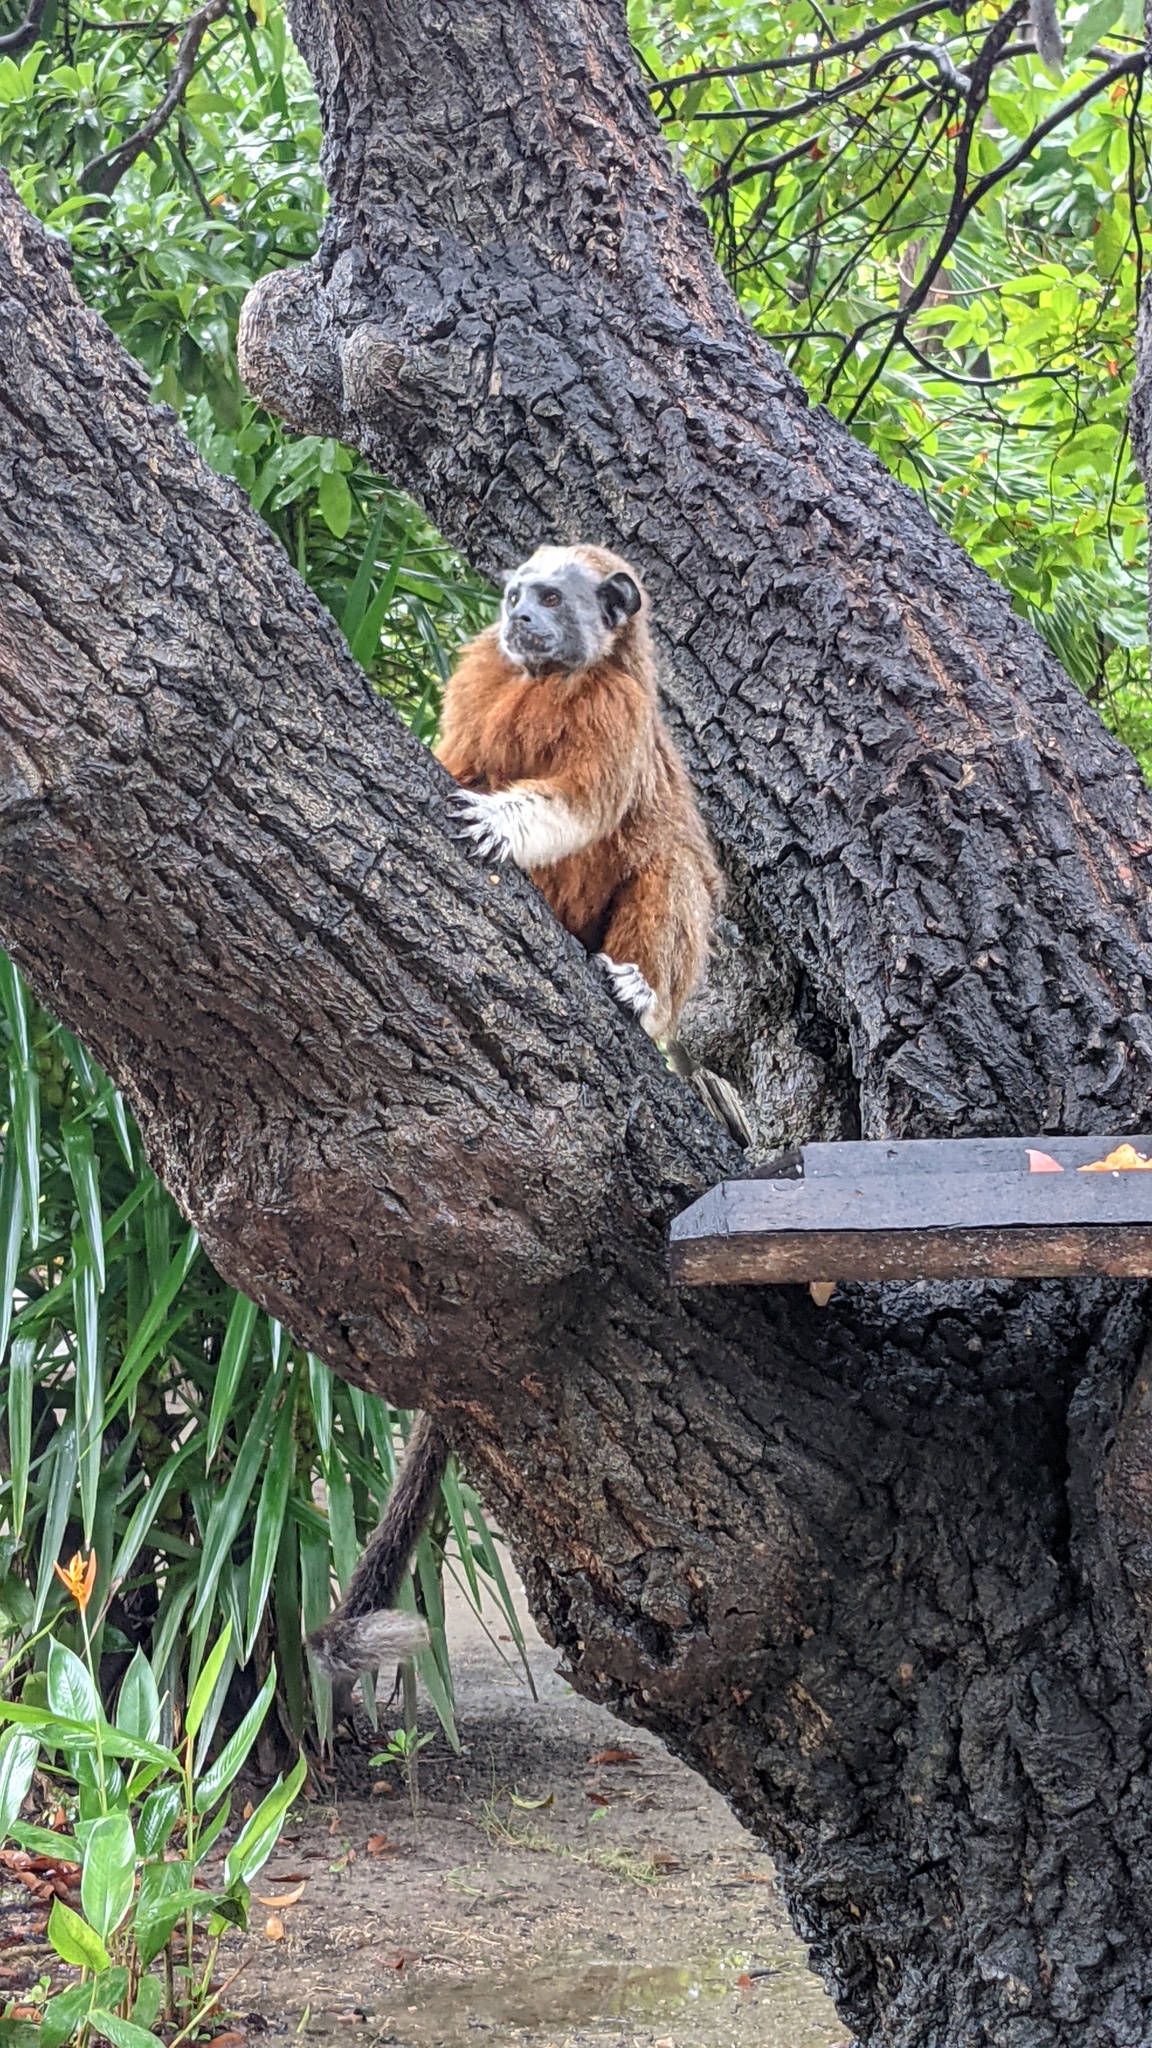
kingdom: Animalia
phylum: Chordata
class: Mammalia
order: Primates
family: Callitrichidae
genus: Saguinus
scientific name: Saguinus leucopus
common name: White-footed tamarin
